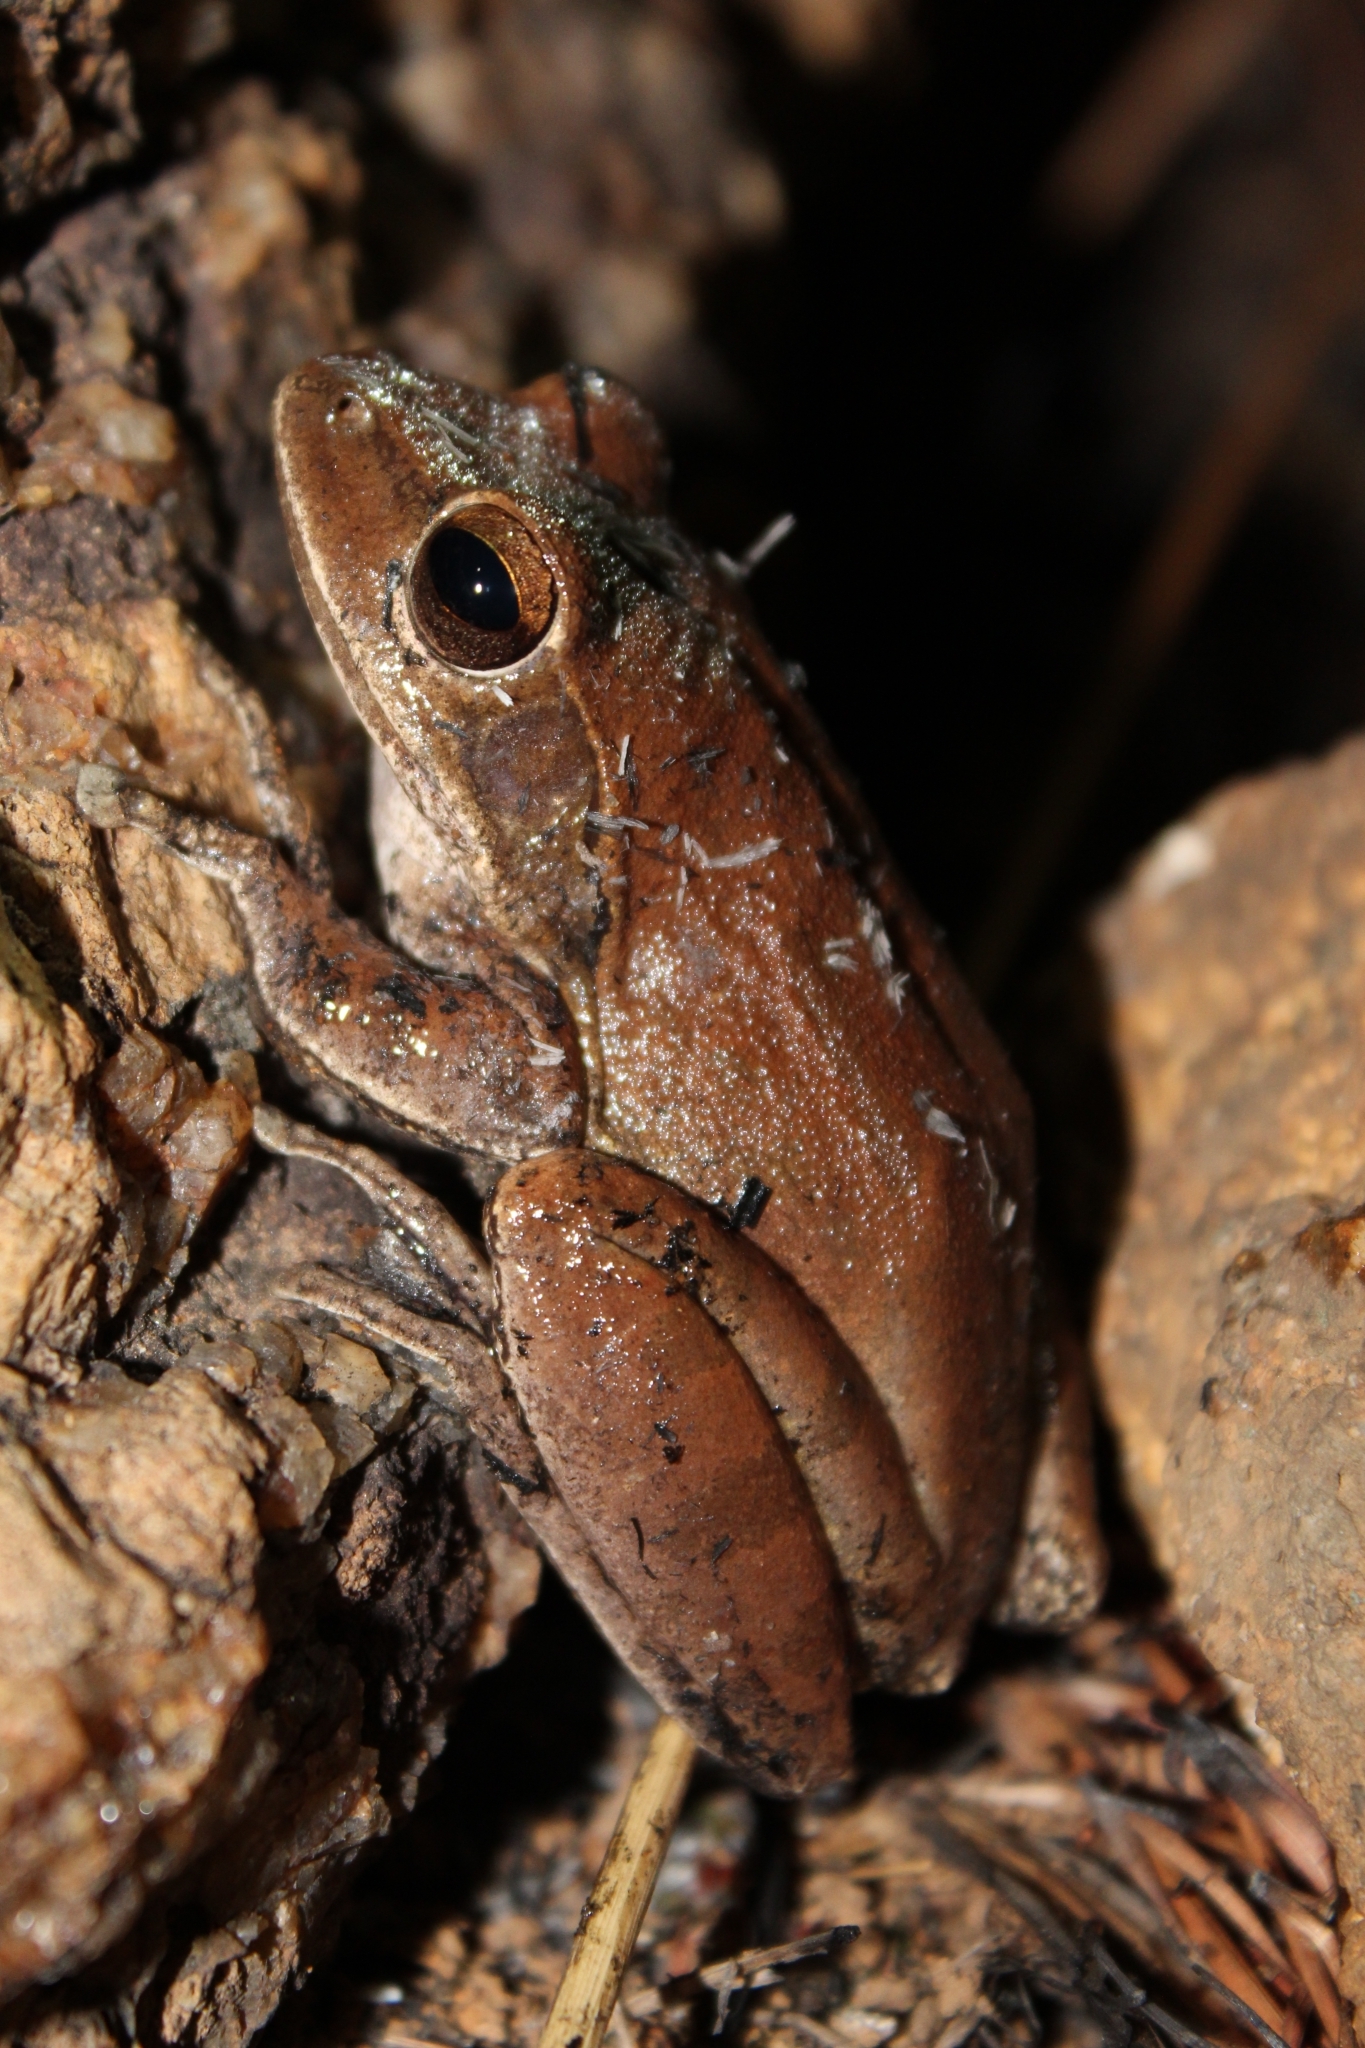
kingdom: Animalia
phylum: Chordata
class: Amphibia
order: Anura
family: Rhacophoridae
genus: Polypedates
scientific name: Polypedates maculatus
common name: Himalayan tree frog
